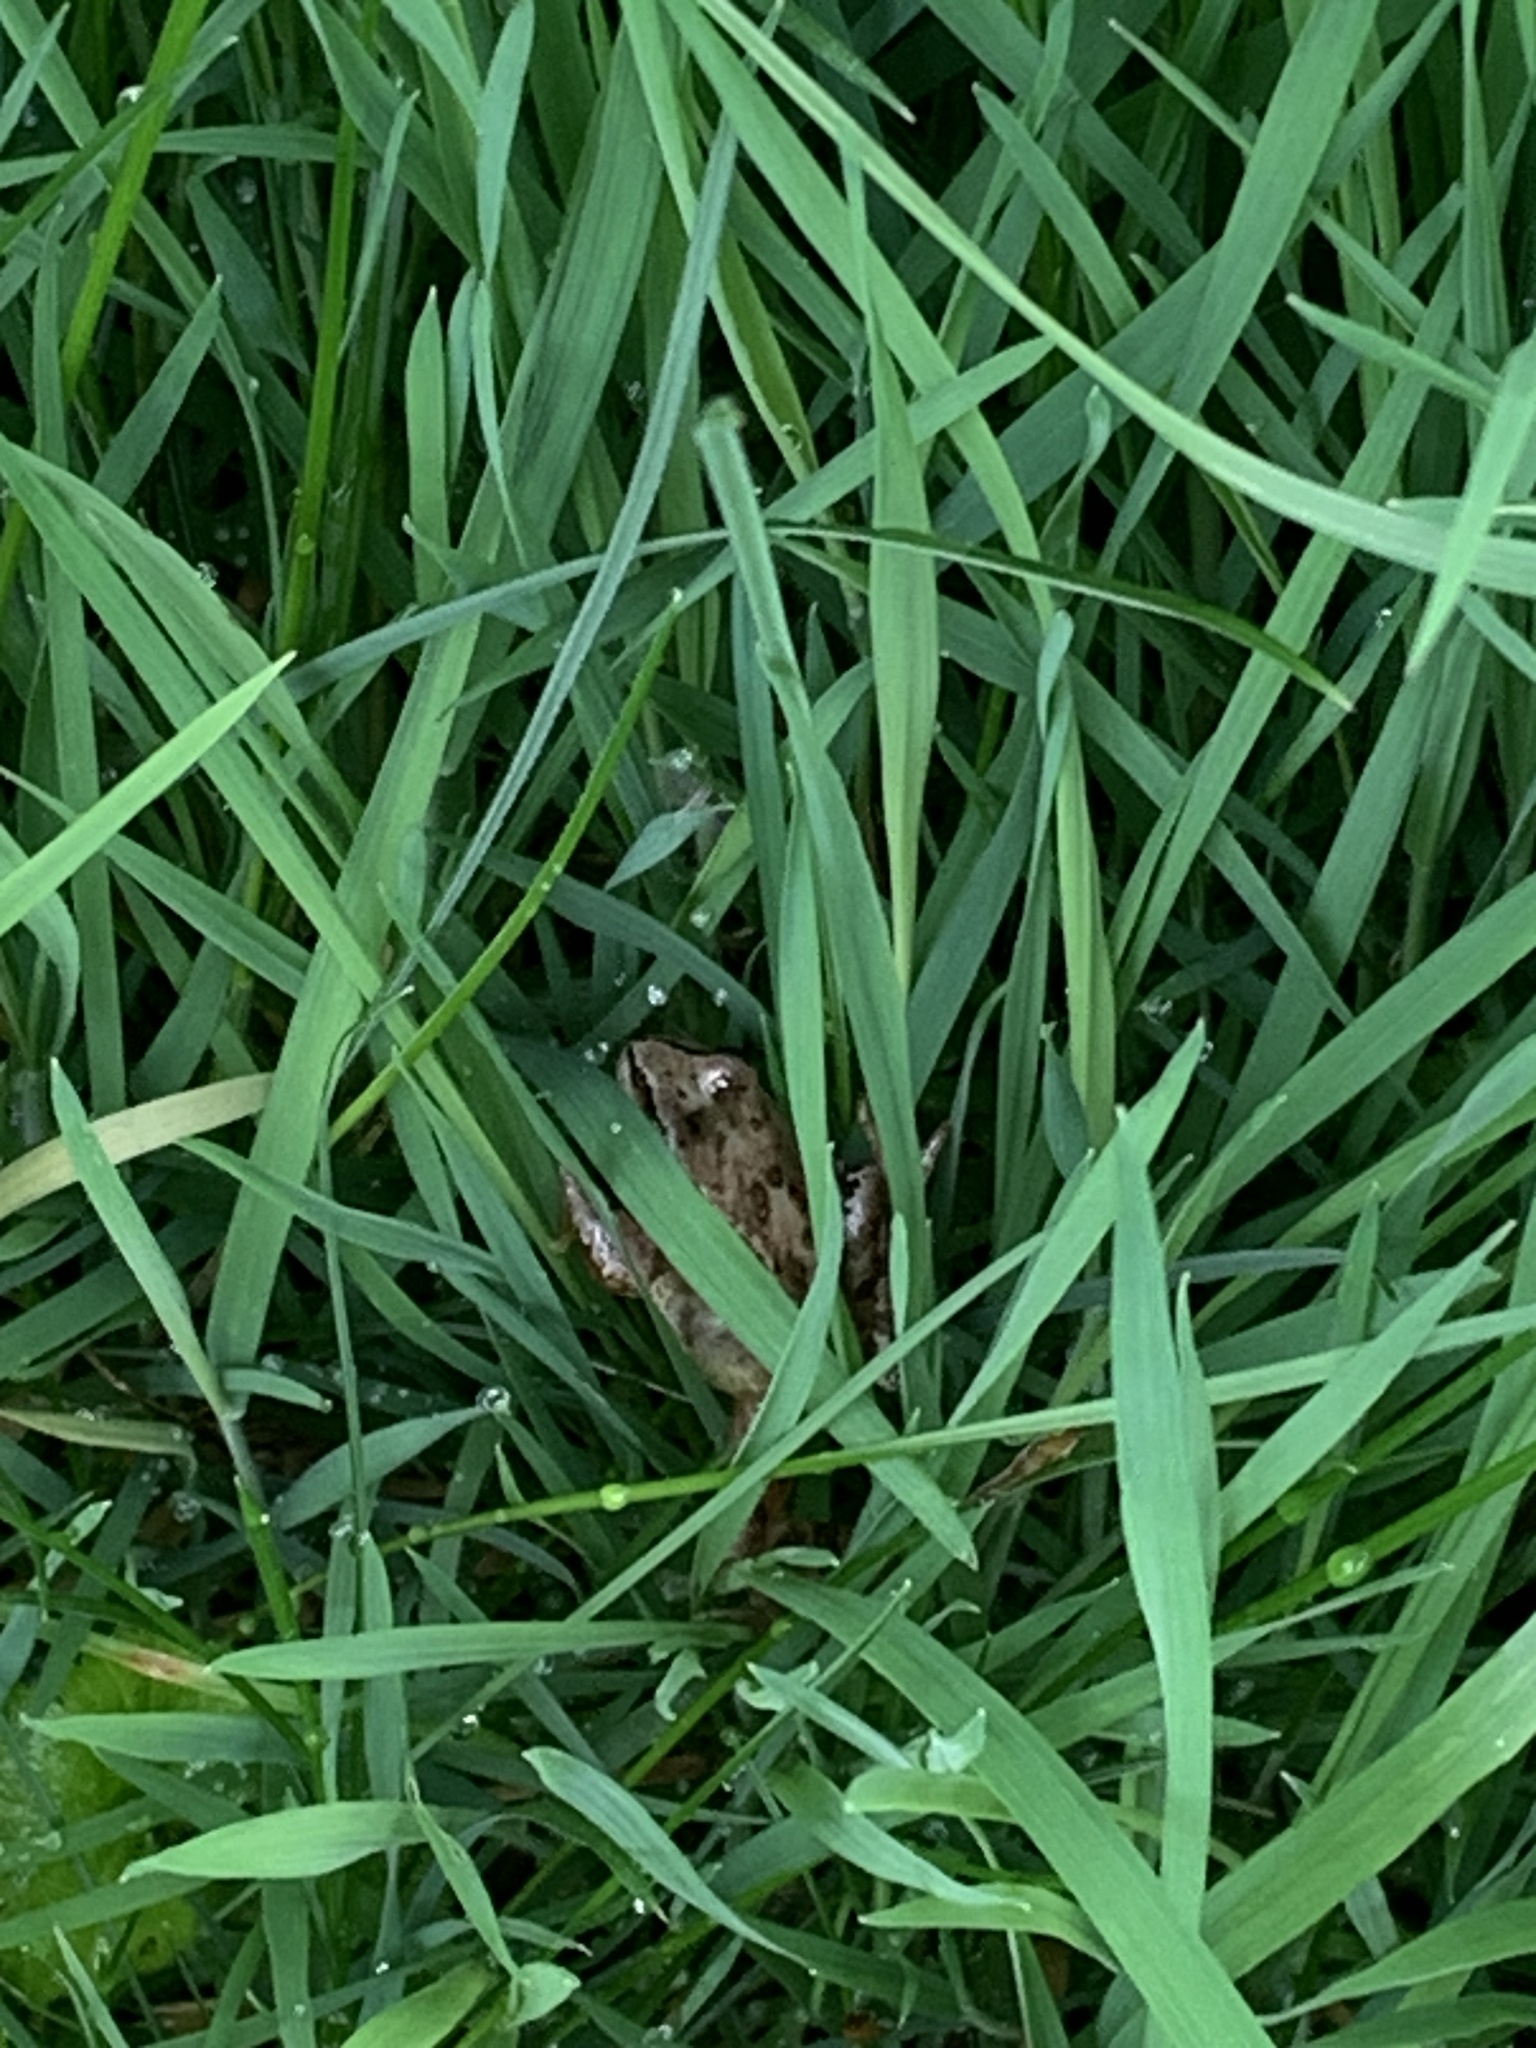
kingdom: Animalia
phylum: Chordata
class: Amphibia
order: Anura
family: Ranidae
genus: Rana
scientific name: Rana temporaria
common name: Common frog
